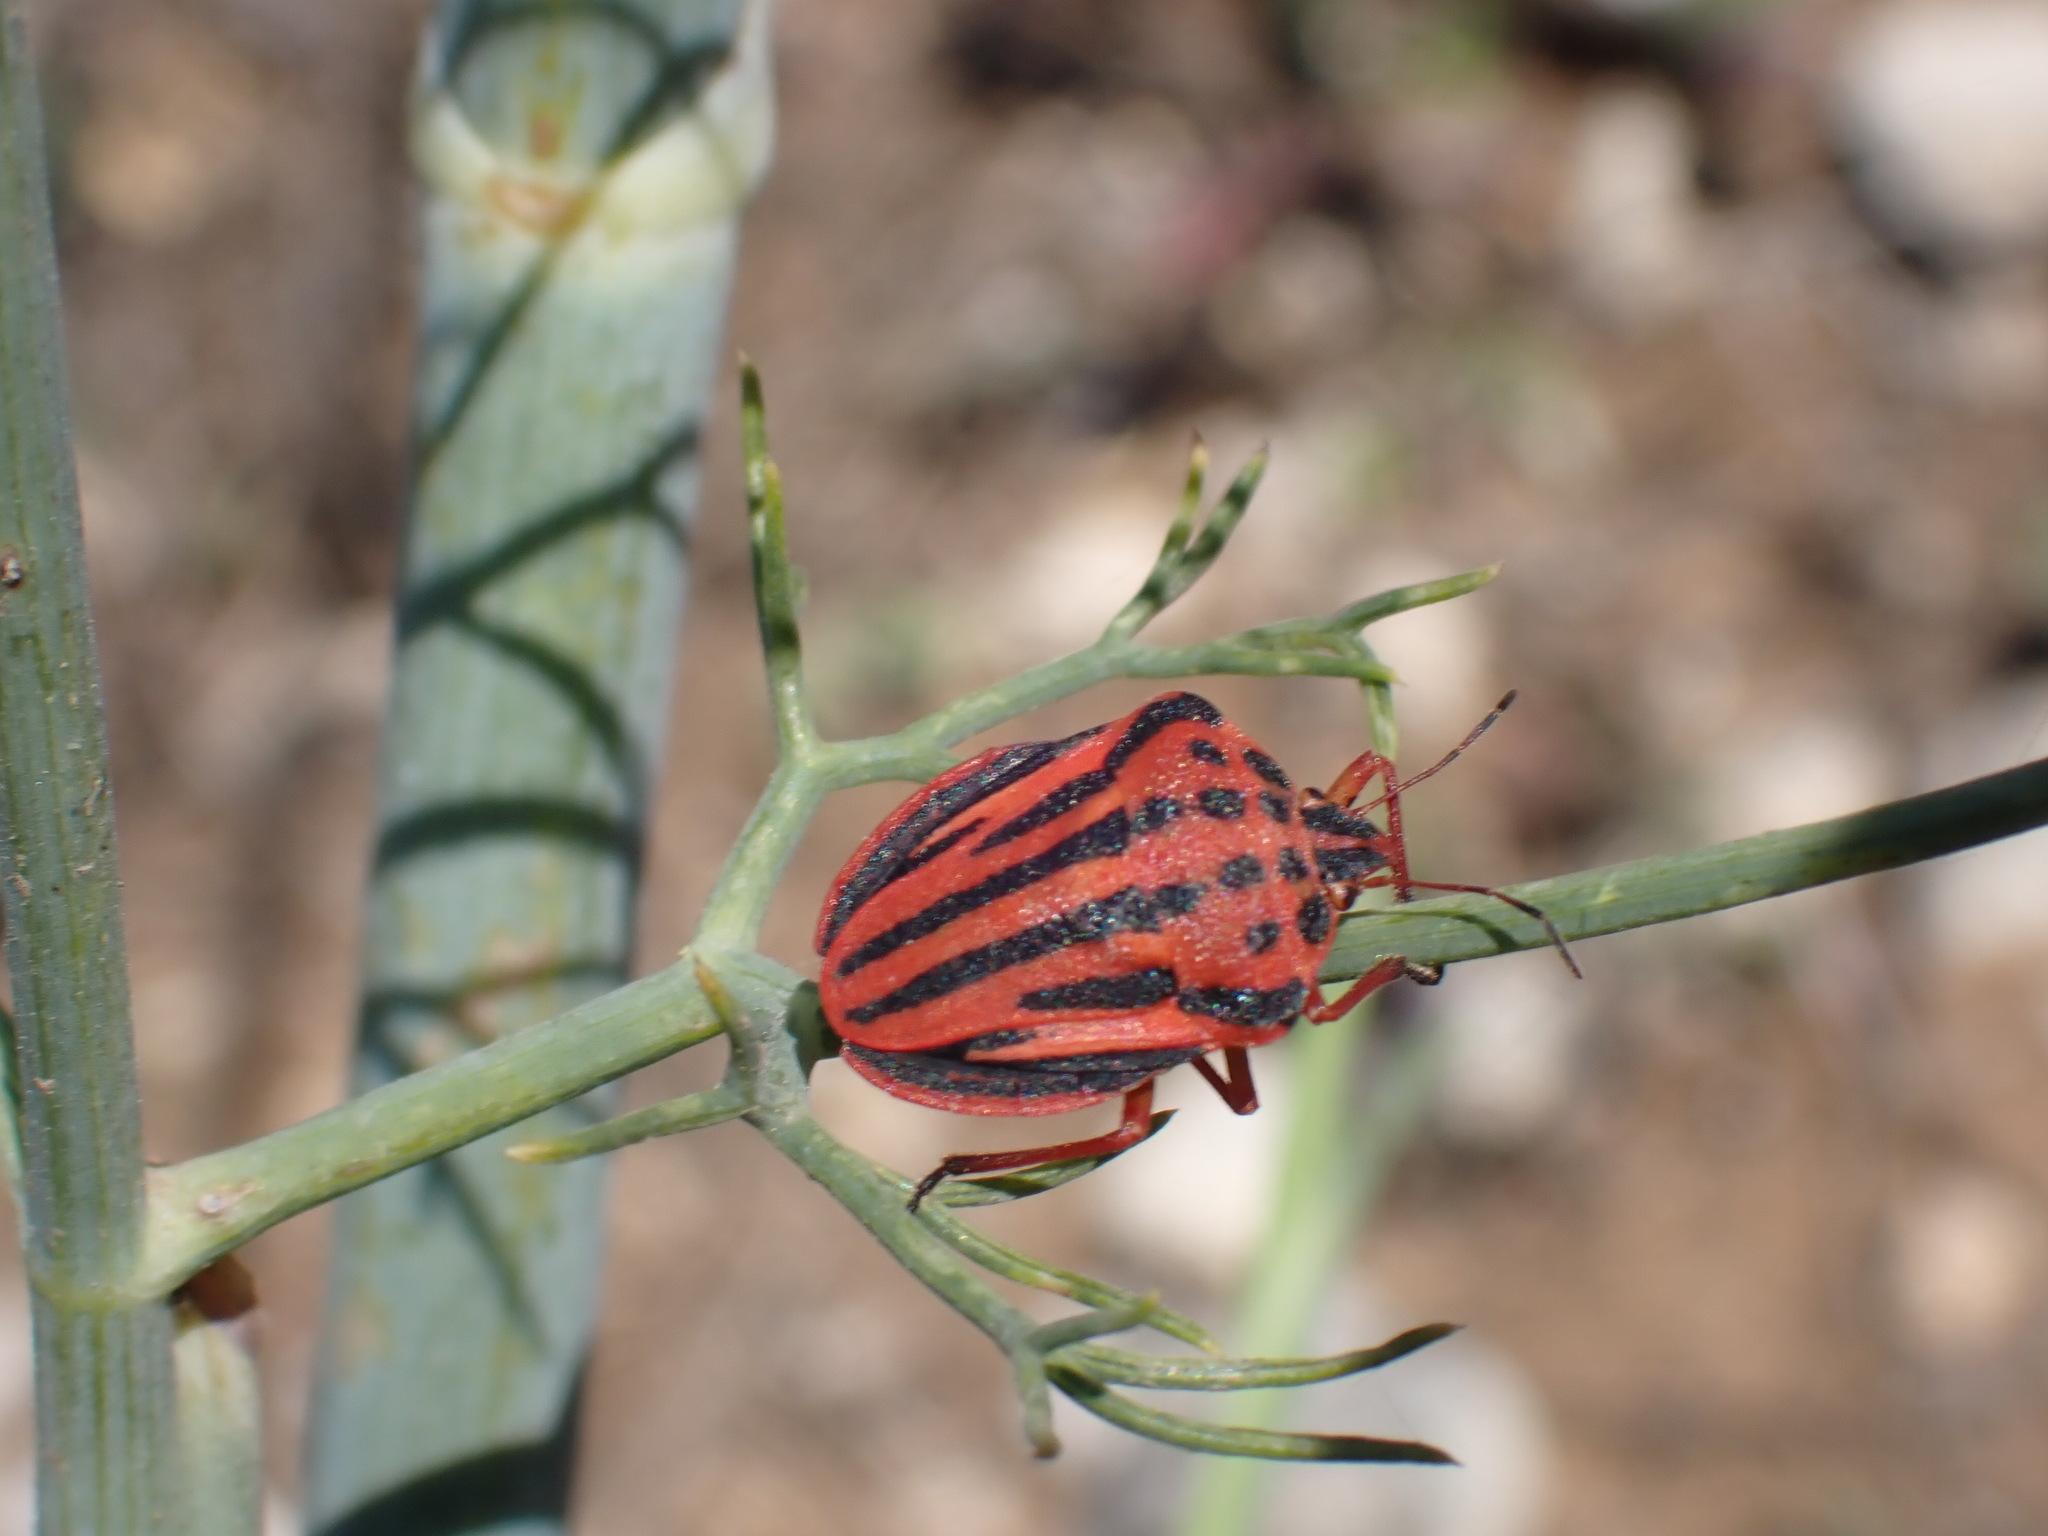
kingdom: Animalia
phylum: Arthropoda
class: Insecta
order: Hemiptera
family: Pentatomidae
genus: Graphosoma
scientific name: Graphosoma semipunctatum
